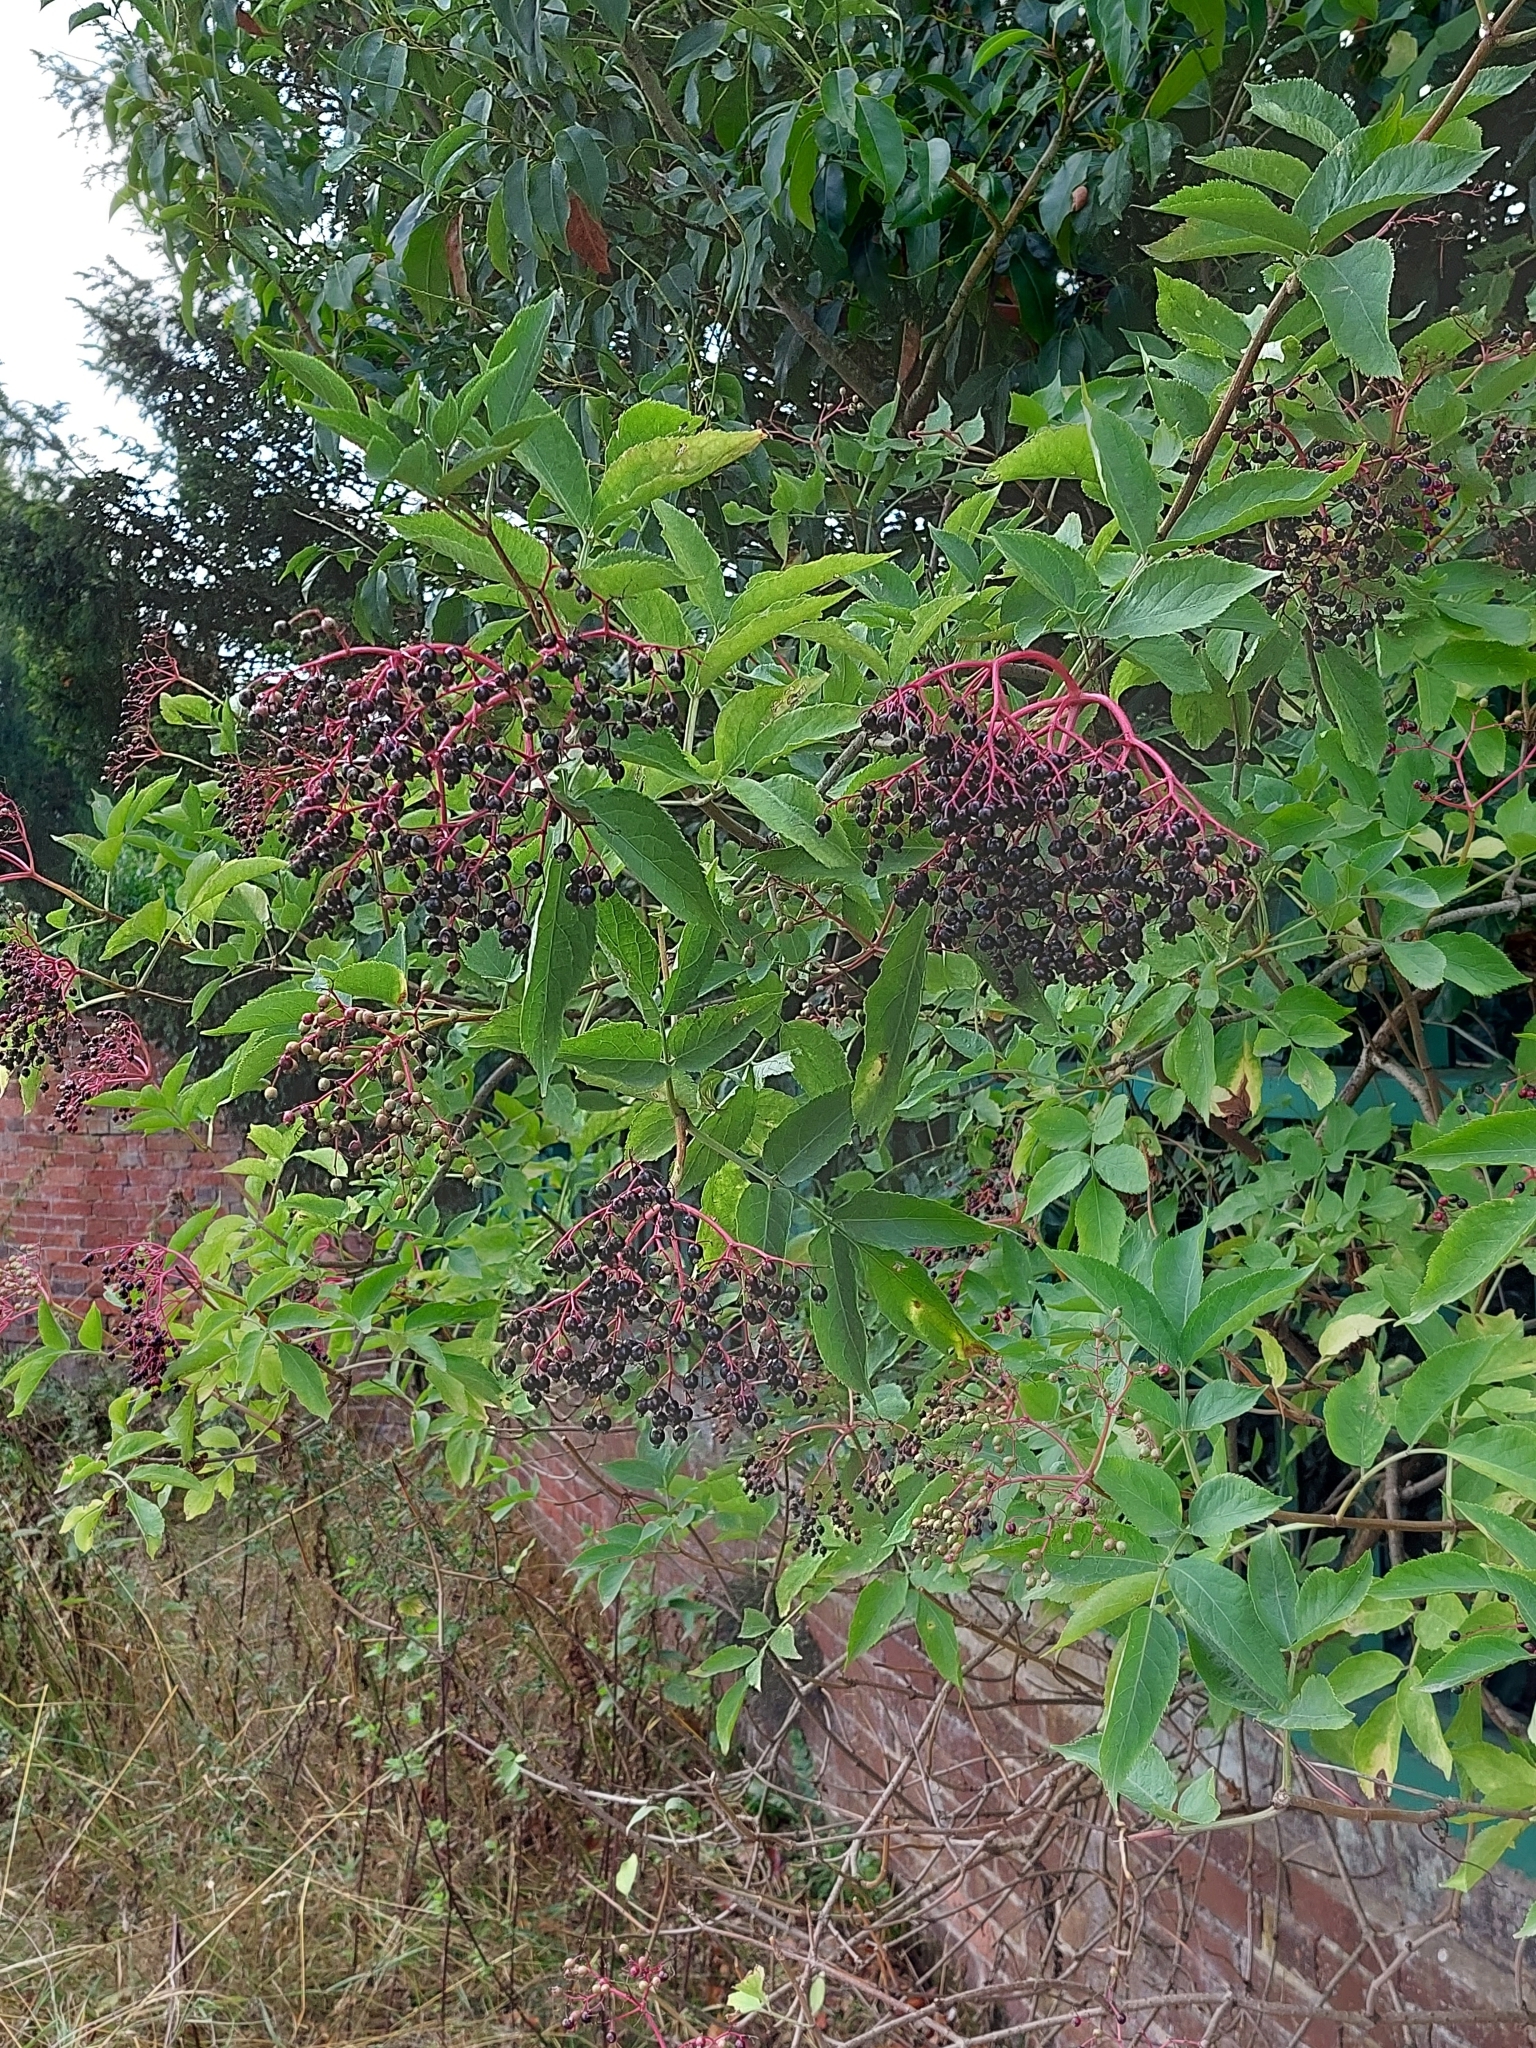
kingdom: Plantae
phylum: Tracheophyta
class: Magnoliopsida
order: Dipsacales
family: Viburnaceae
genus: Sambucus
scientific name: Sambucus nigra
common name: Elder
